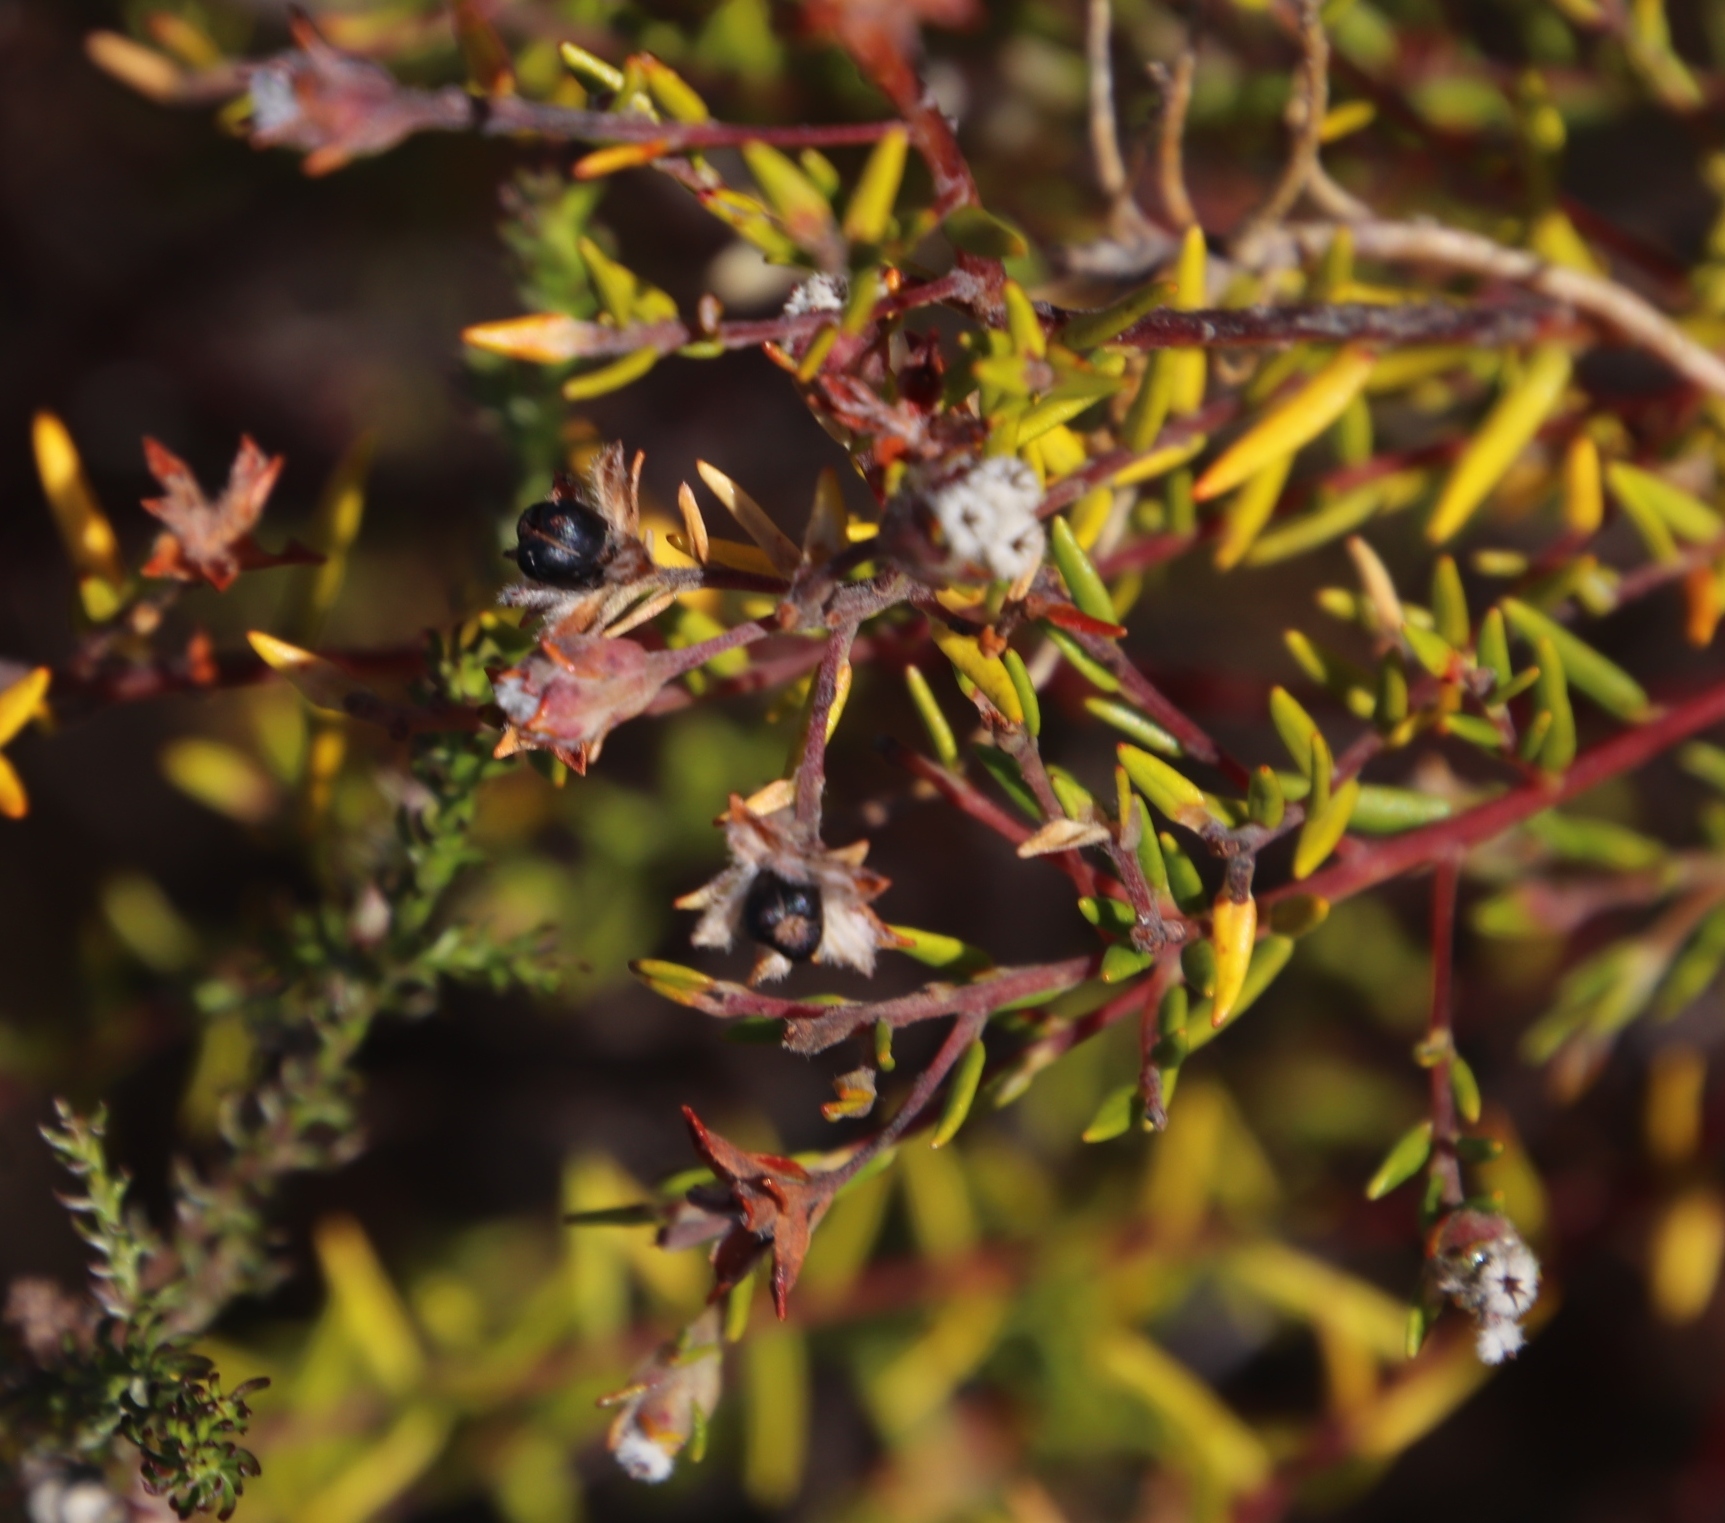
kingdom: Plantae
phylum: Tracheophyta
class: Magnoliopsida
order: Rosales
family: Rhamnaceae
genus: Phylica
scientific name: Phylica virgata
